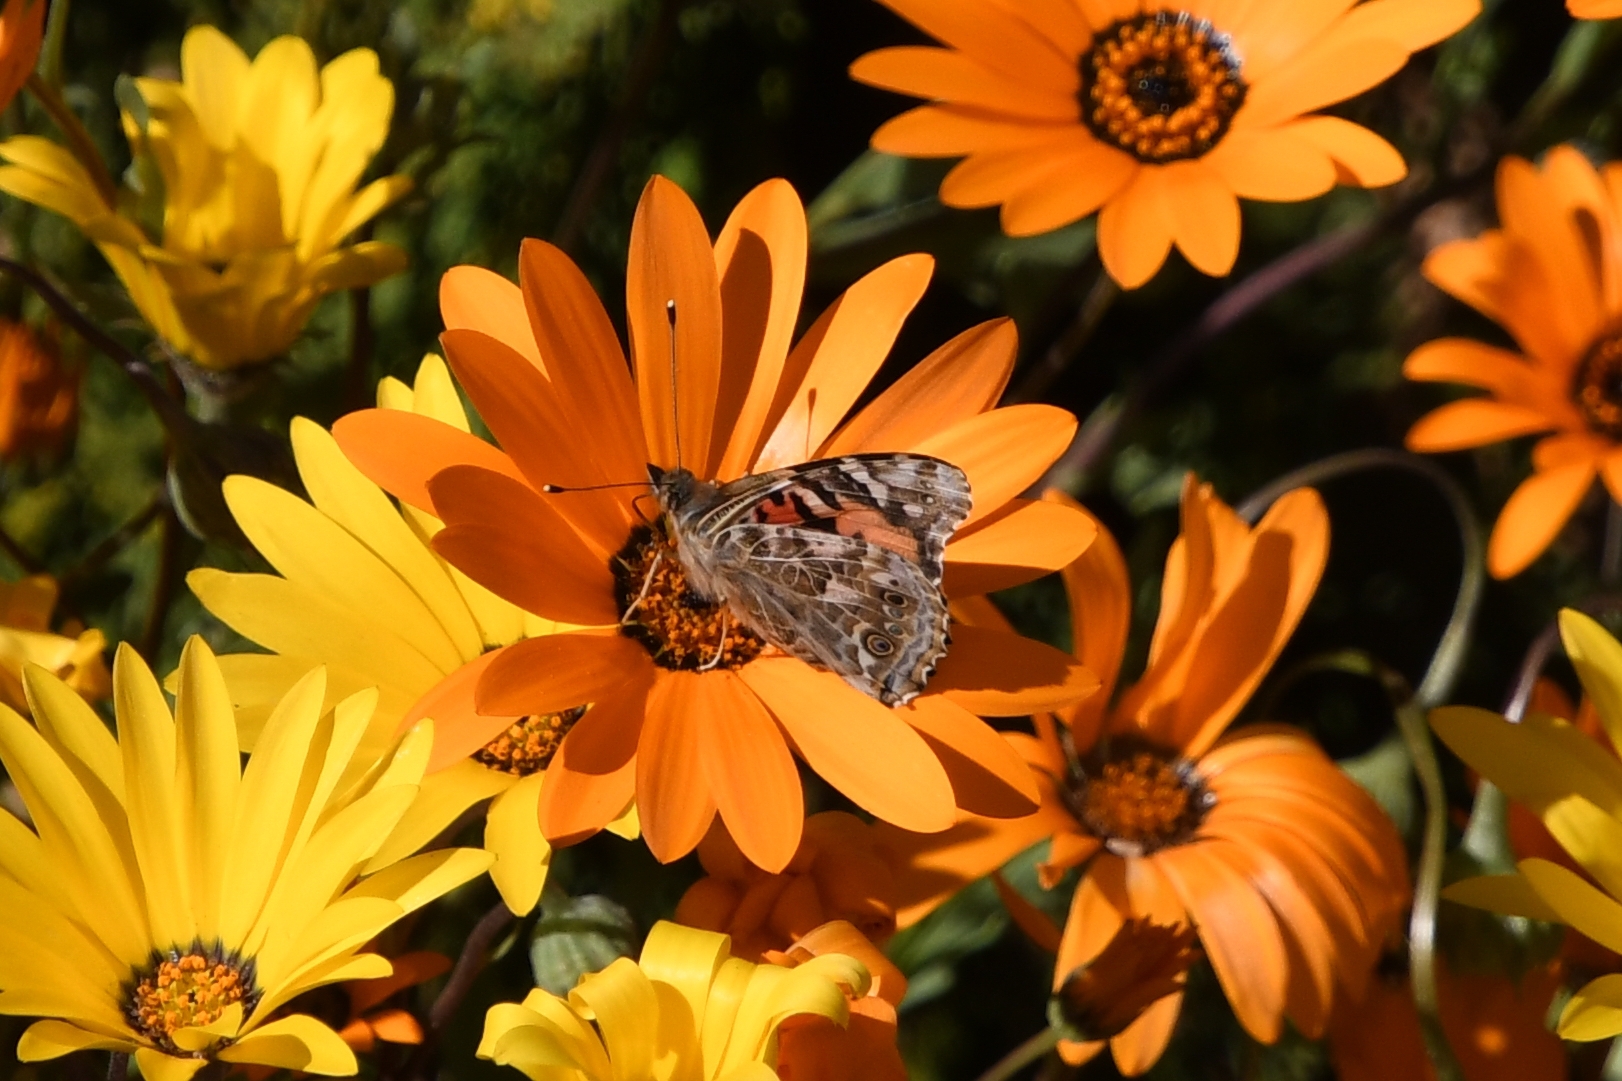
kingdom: Animalia
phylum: Arthropoda
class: Insecta
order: Lepidoptera
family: Nymphalidae
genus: Vanessa
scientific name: Vanessa cardui
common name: Painted lady
